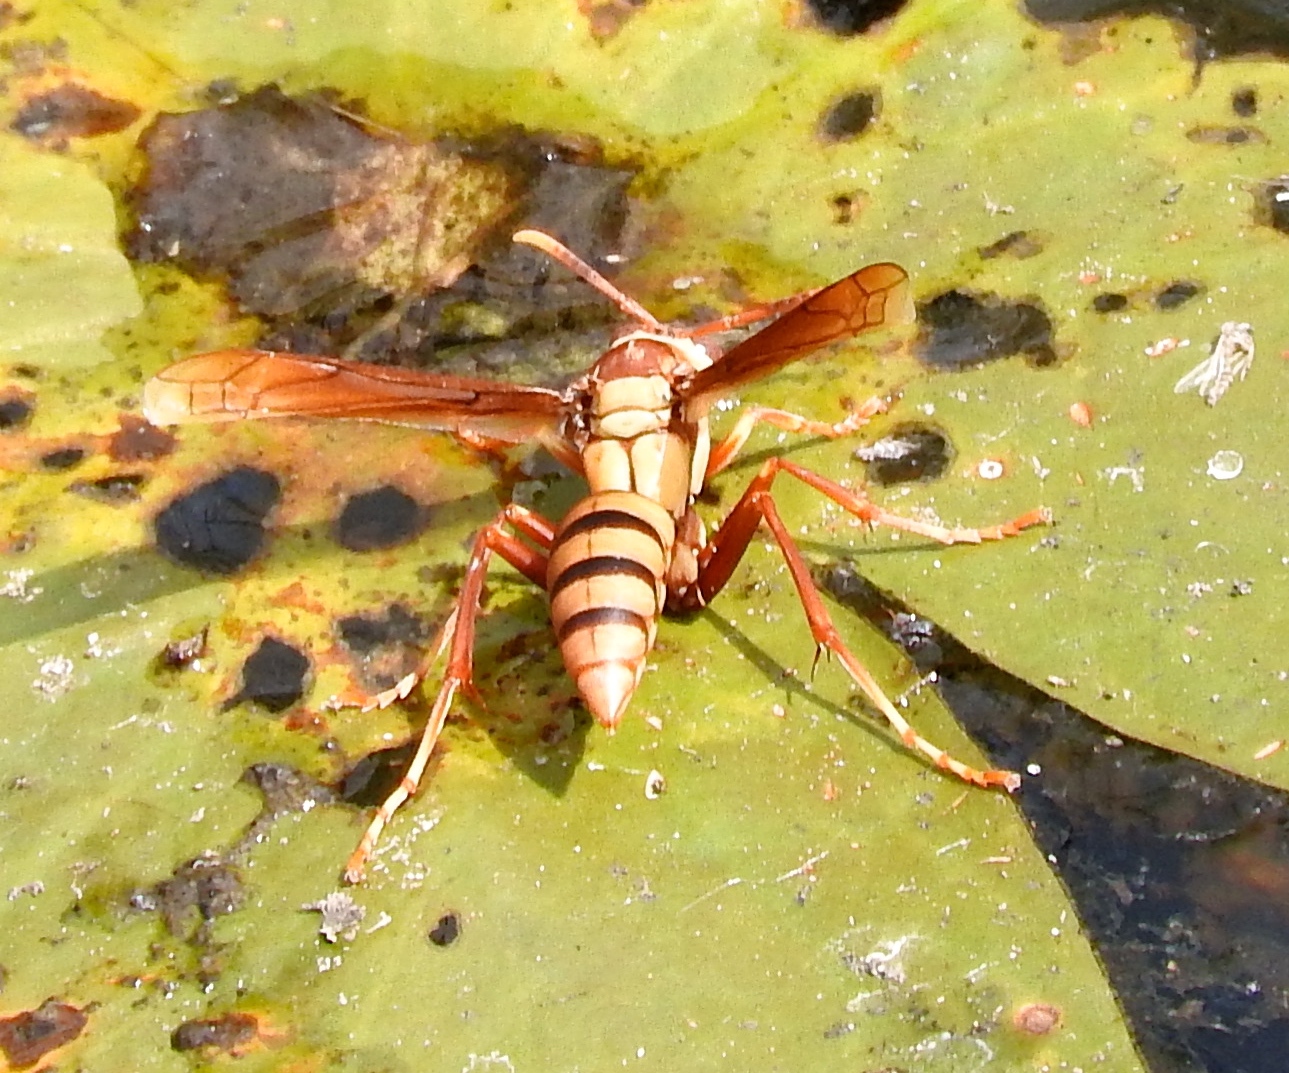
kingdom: Animalia
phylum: Arthropoda
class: Insecta
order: Hymenoptera
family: Eumenidae
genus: Polistes
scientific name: Polistes
